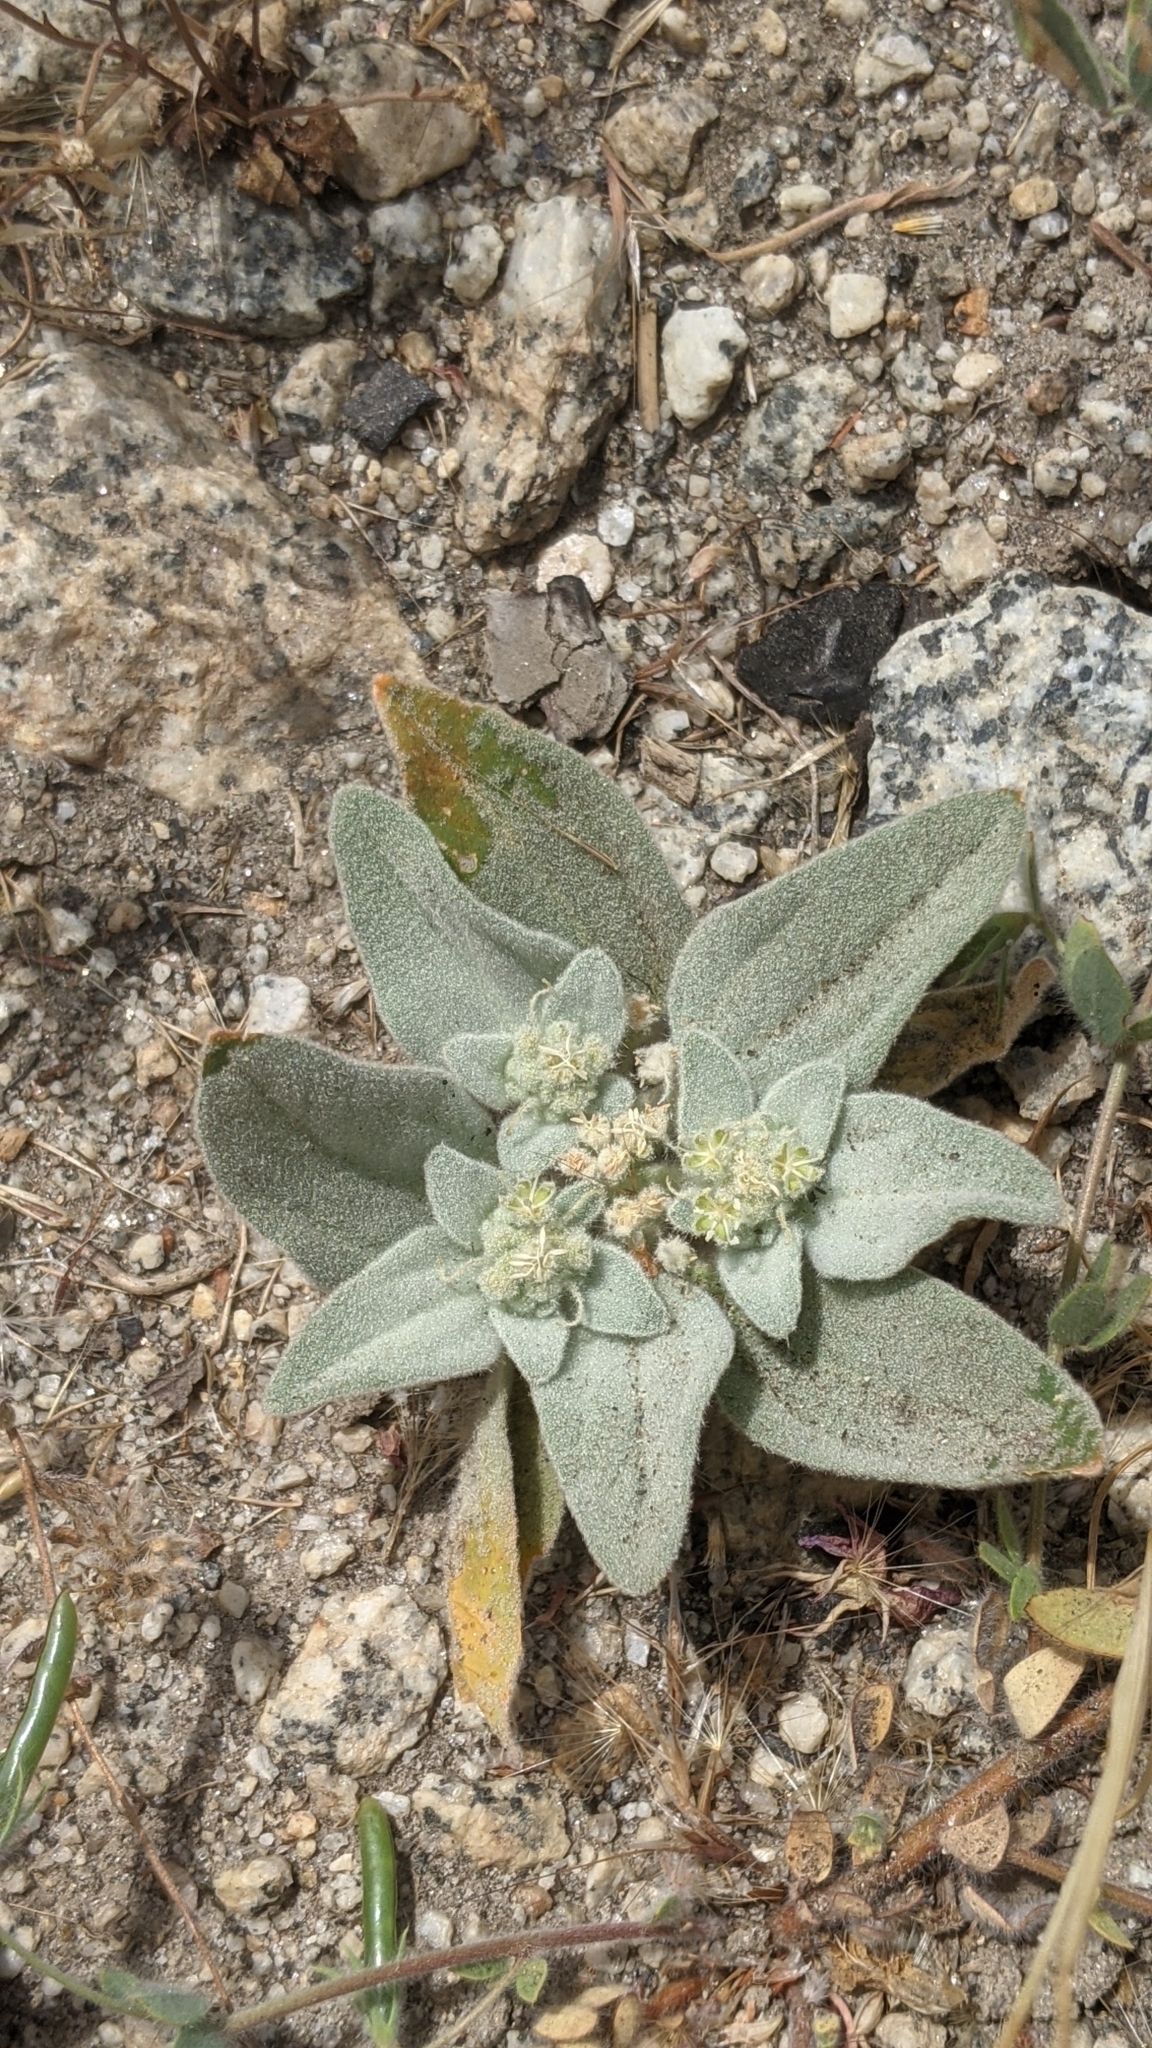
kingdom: Plantae
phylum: Tracheophyta
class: Magnoliopsida
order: Malpighiales
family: Euphorbiaceae
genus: Croton
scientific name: Croton setiger
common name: Dove weed
